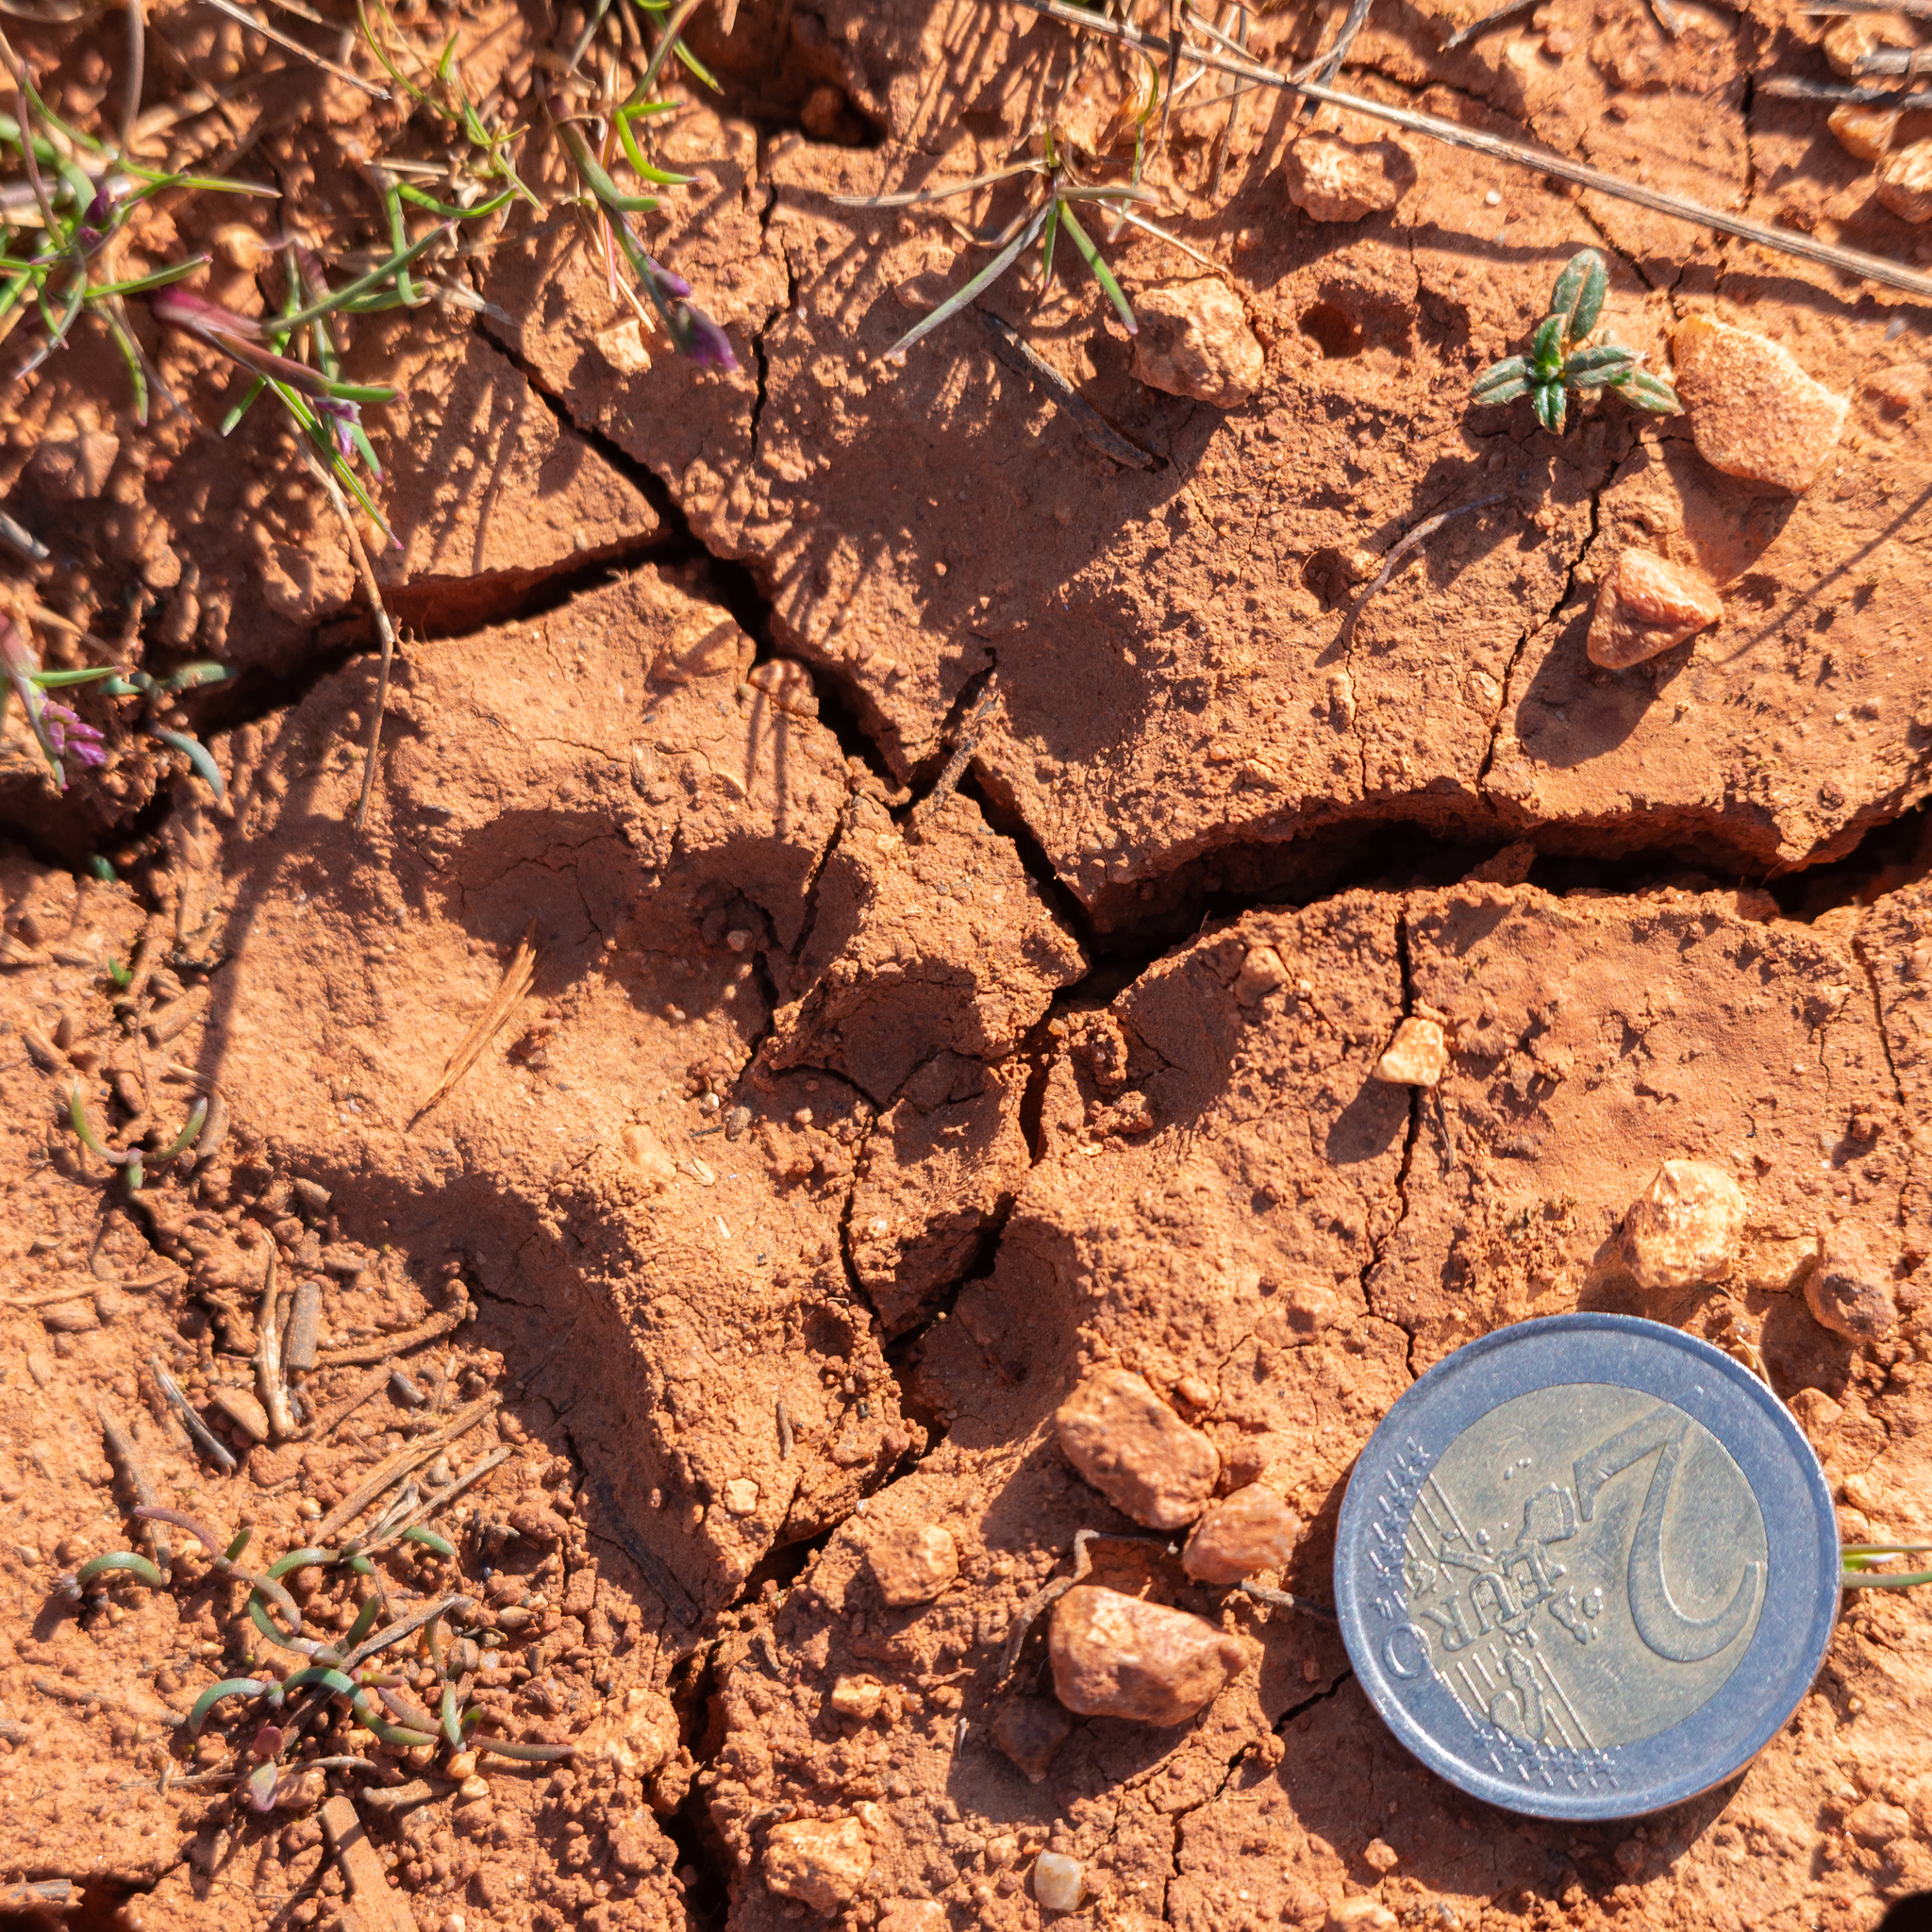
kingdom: Animalia
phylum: Chordata
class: Mammalia
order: Carnivora
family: Mustelidae
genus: Meles
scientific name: Meles meles
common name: Eurasian badger
